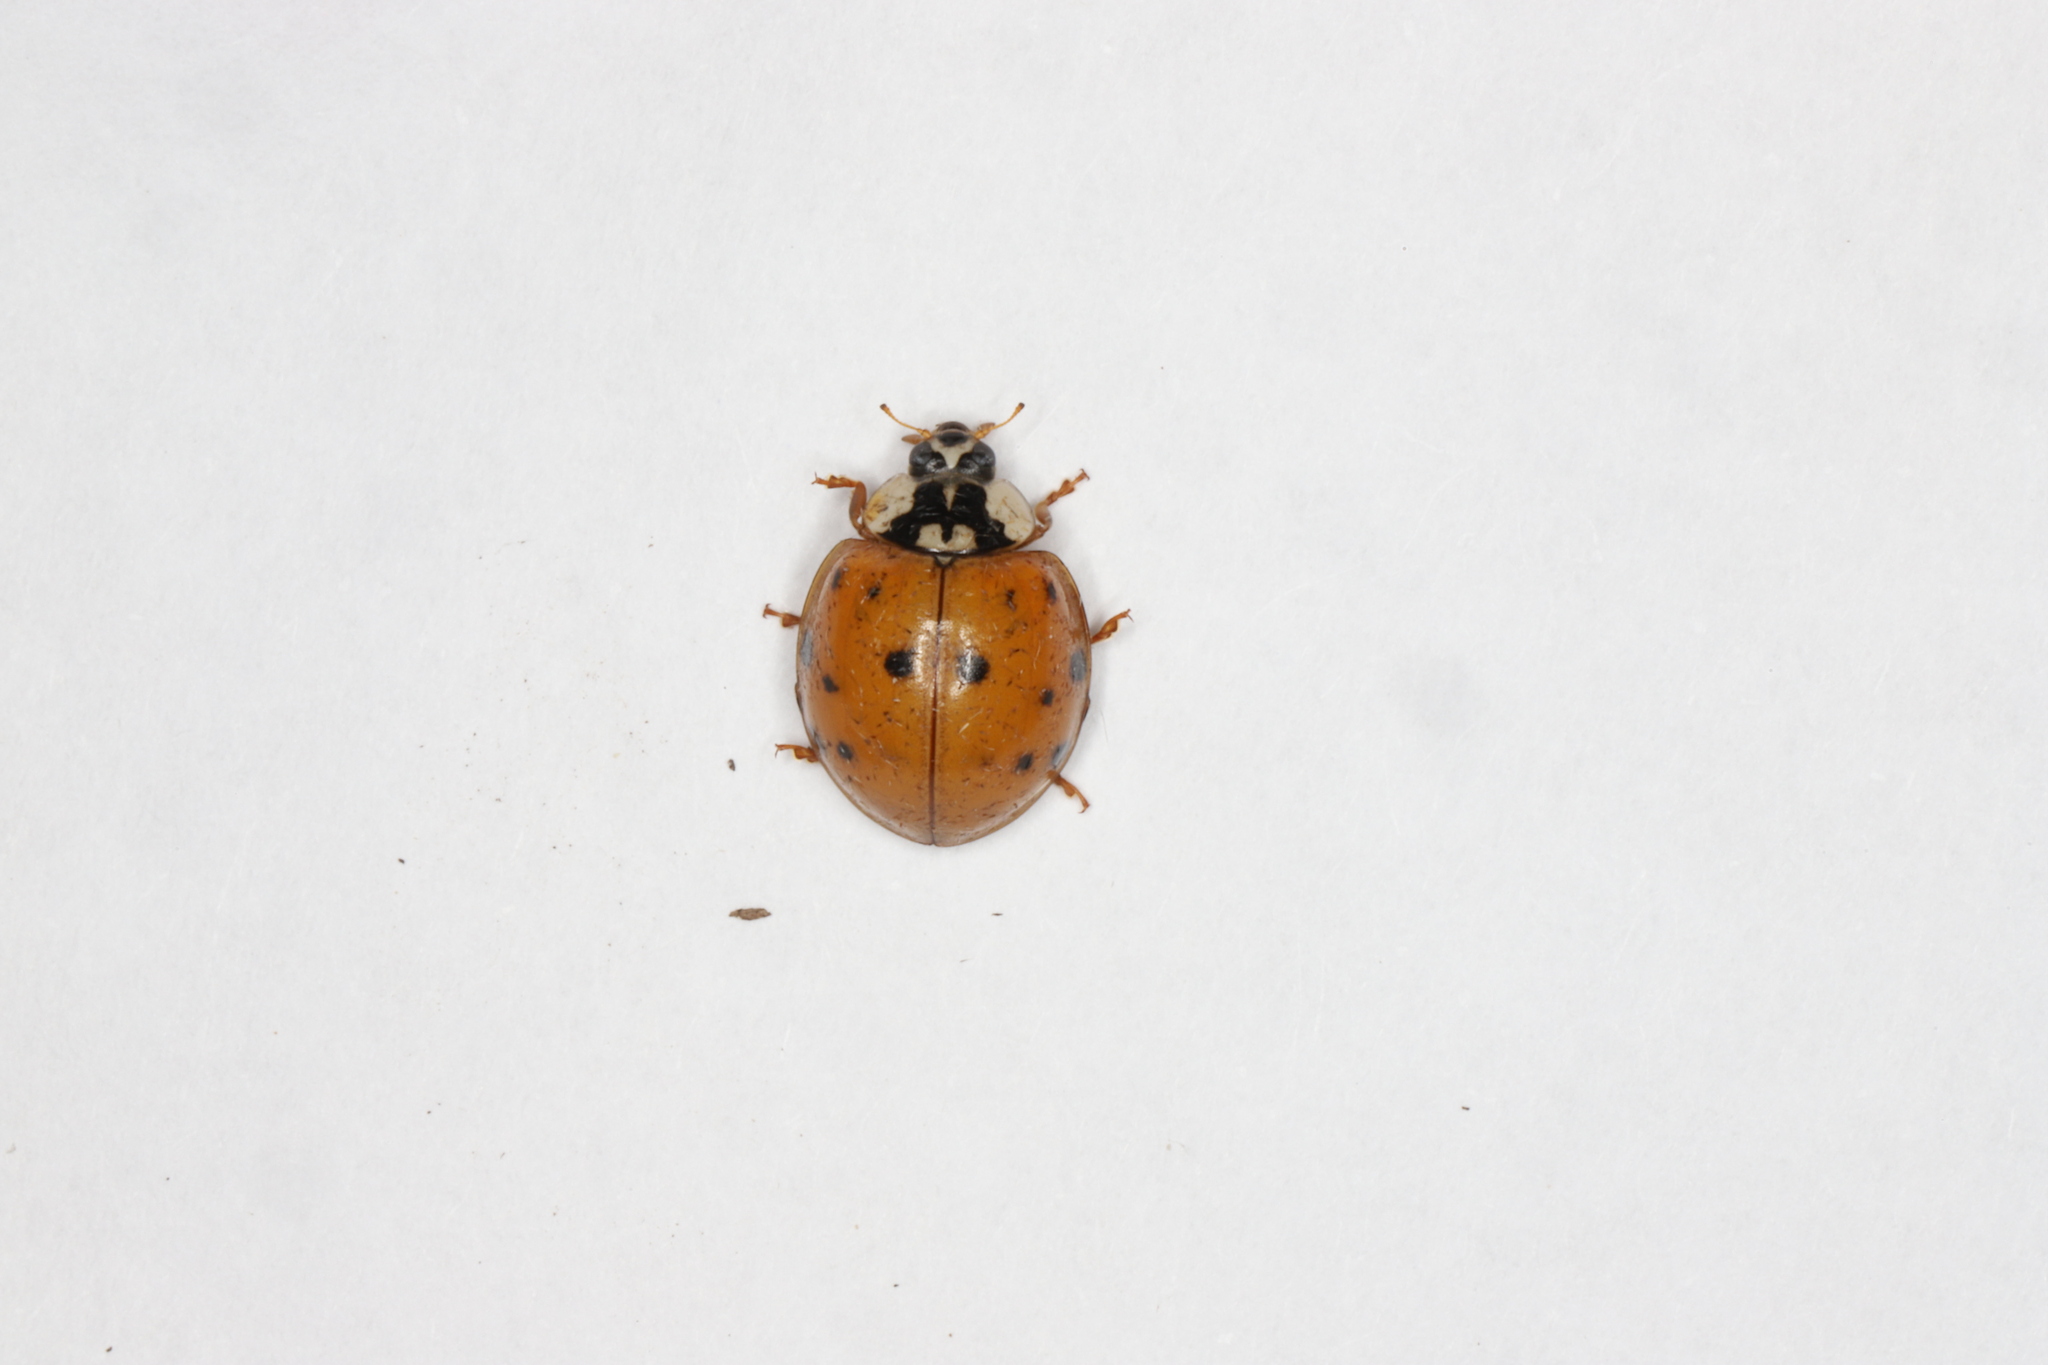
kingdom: Animalia
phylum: Arthropoda
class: Insecta
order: Coleoptera
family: Coccinellidae
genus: Harmonia
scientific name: Harmonia axyridis
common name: Harlequin ladybird
